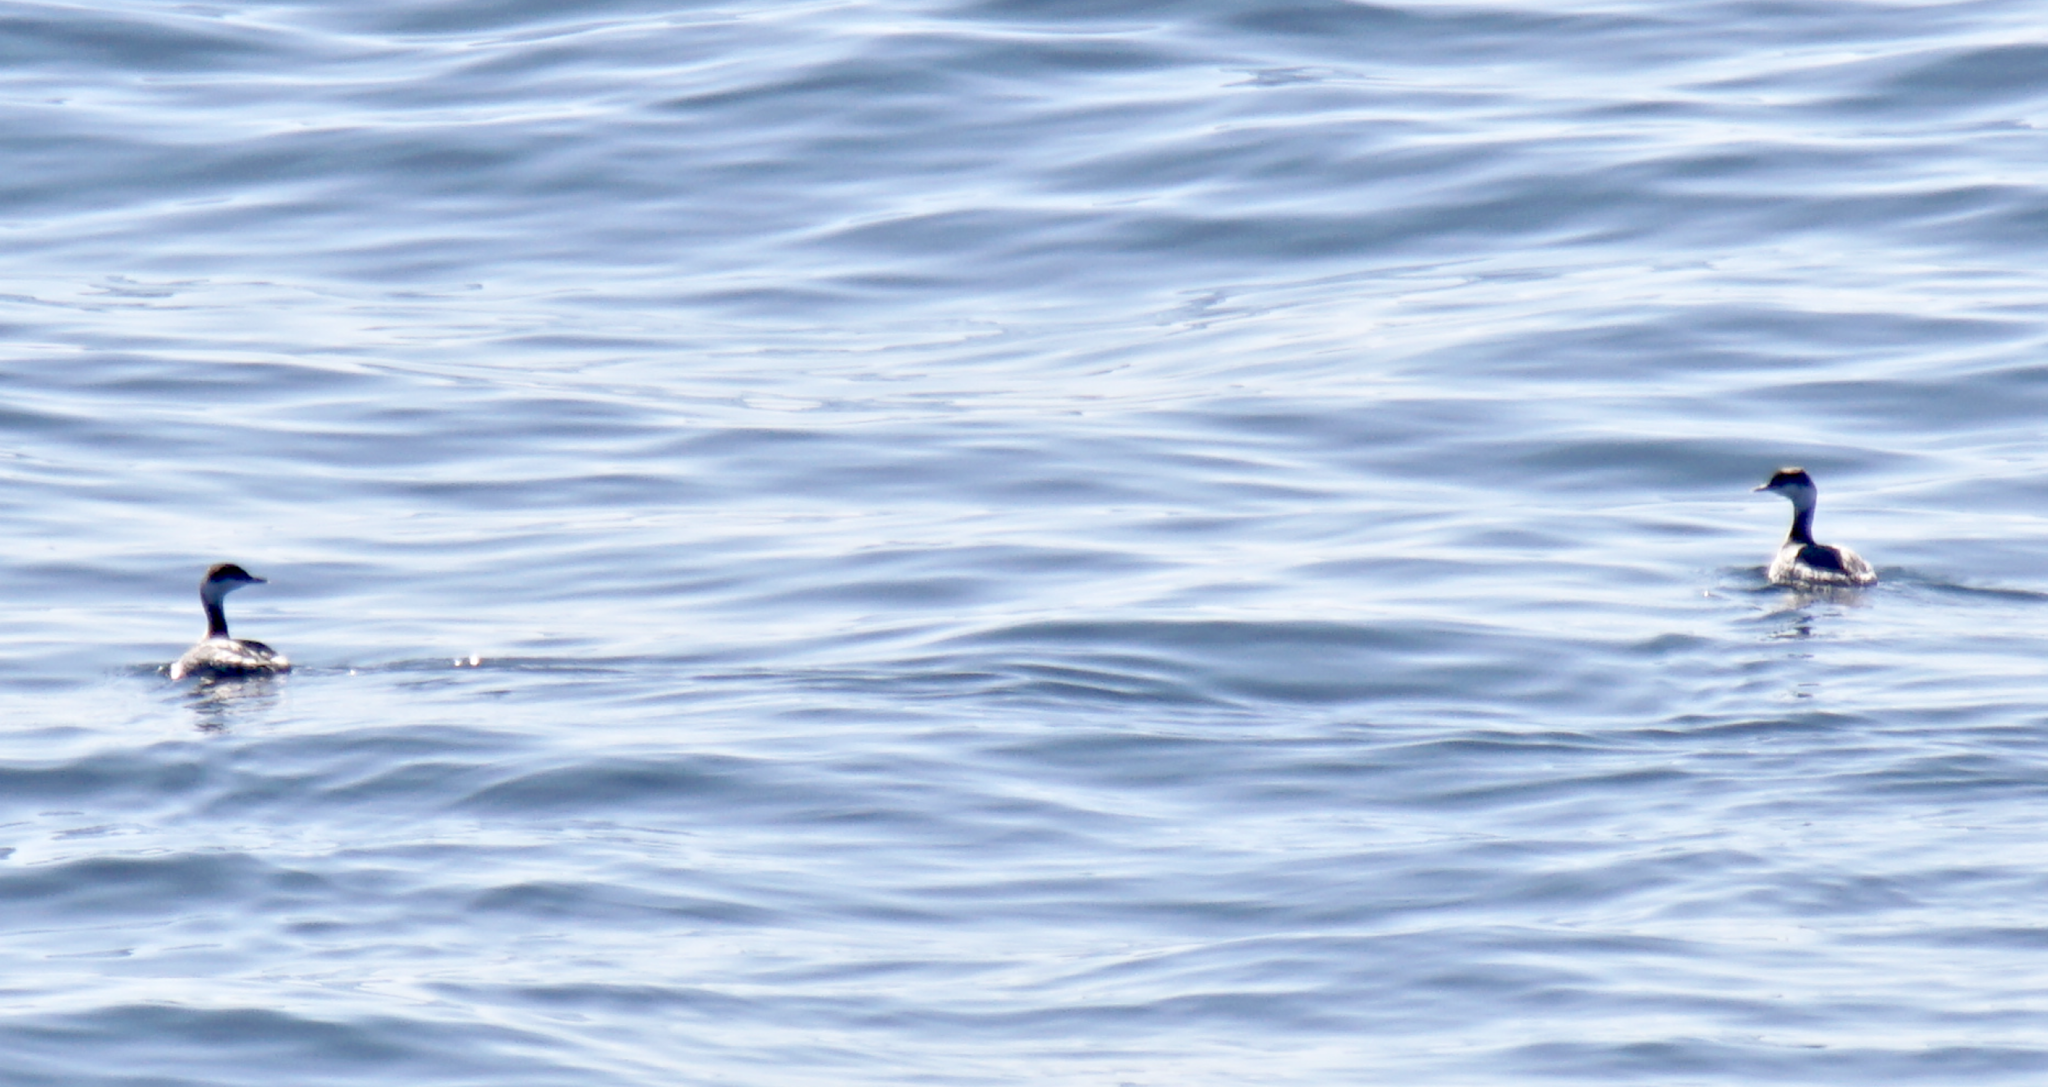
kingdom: Animalia
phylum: Chordata
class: Aves
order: Podicipediformes
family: Podicipedidae
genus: Podiceps
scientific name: Podiceps auritus
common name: Horned grebe
